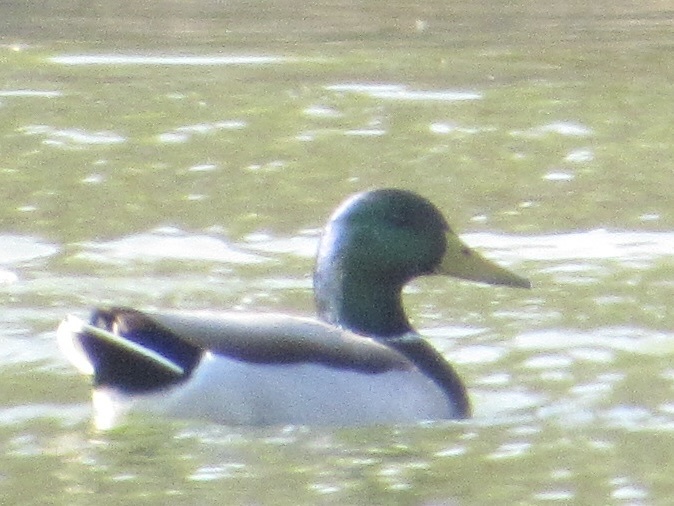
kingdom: Animalia
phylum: Chordata
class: Aves
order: Anseriformes
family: Anatidae
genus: Anas
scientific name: Anas platyrhynchos
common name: Mallard
